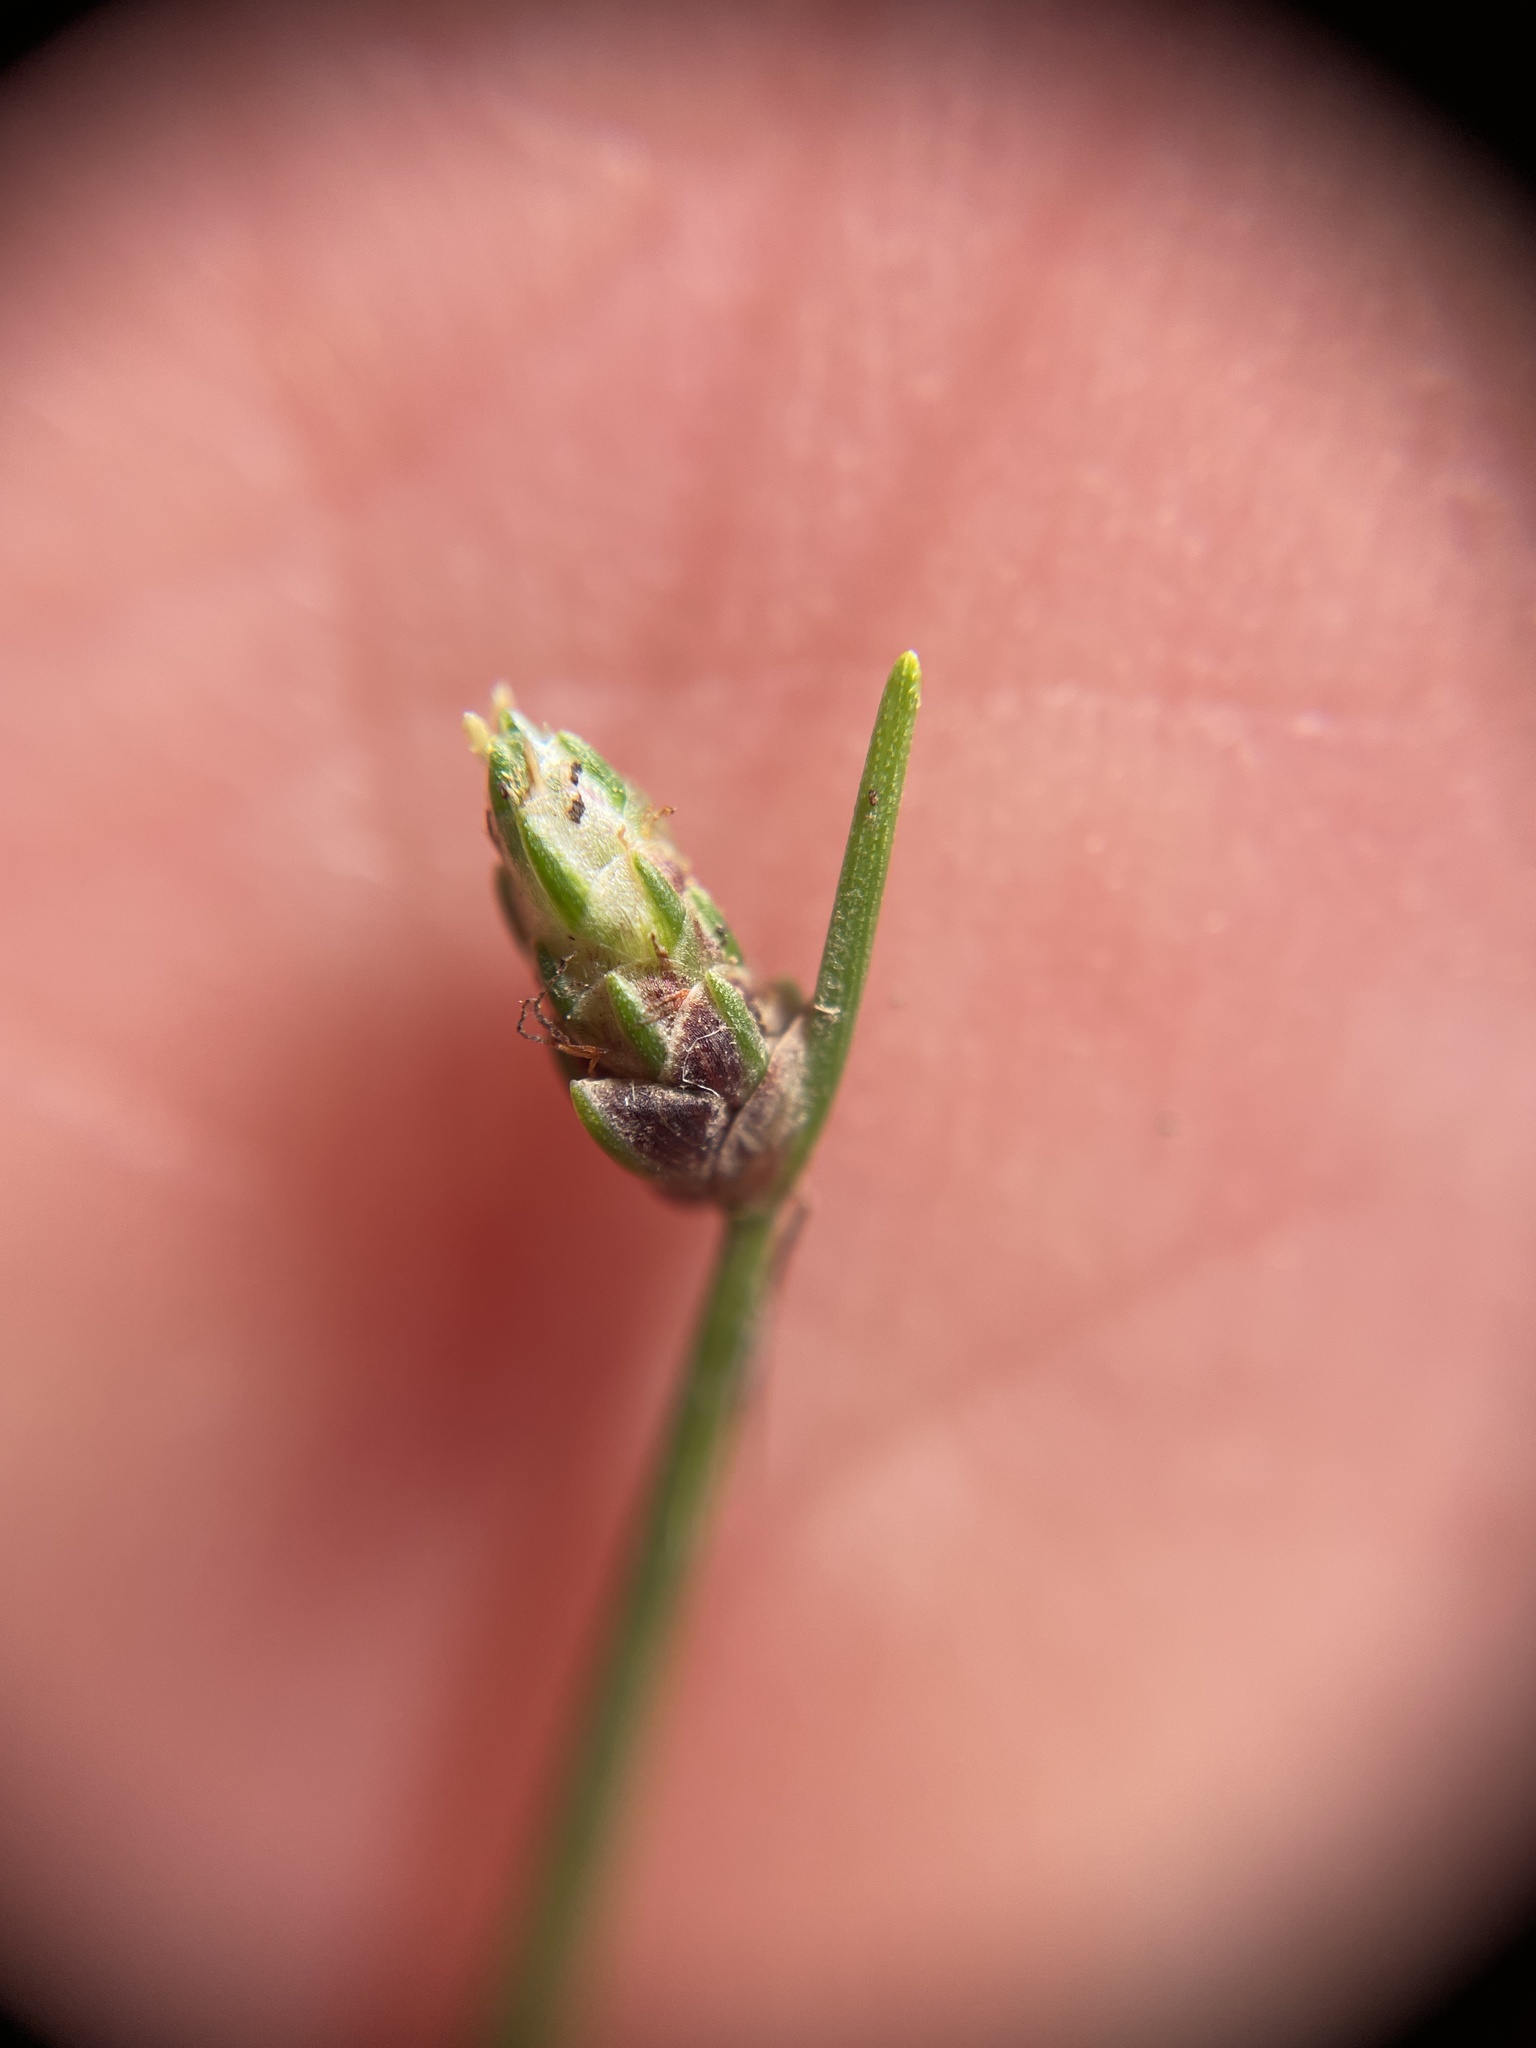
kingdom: Plantae
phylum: Tracheophyta
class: Liliopsida
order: Poales
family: Cyperaceae
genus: Isolepis
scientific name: Isolepis cernua
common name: Slender club-rush
